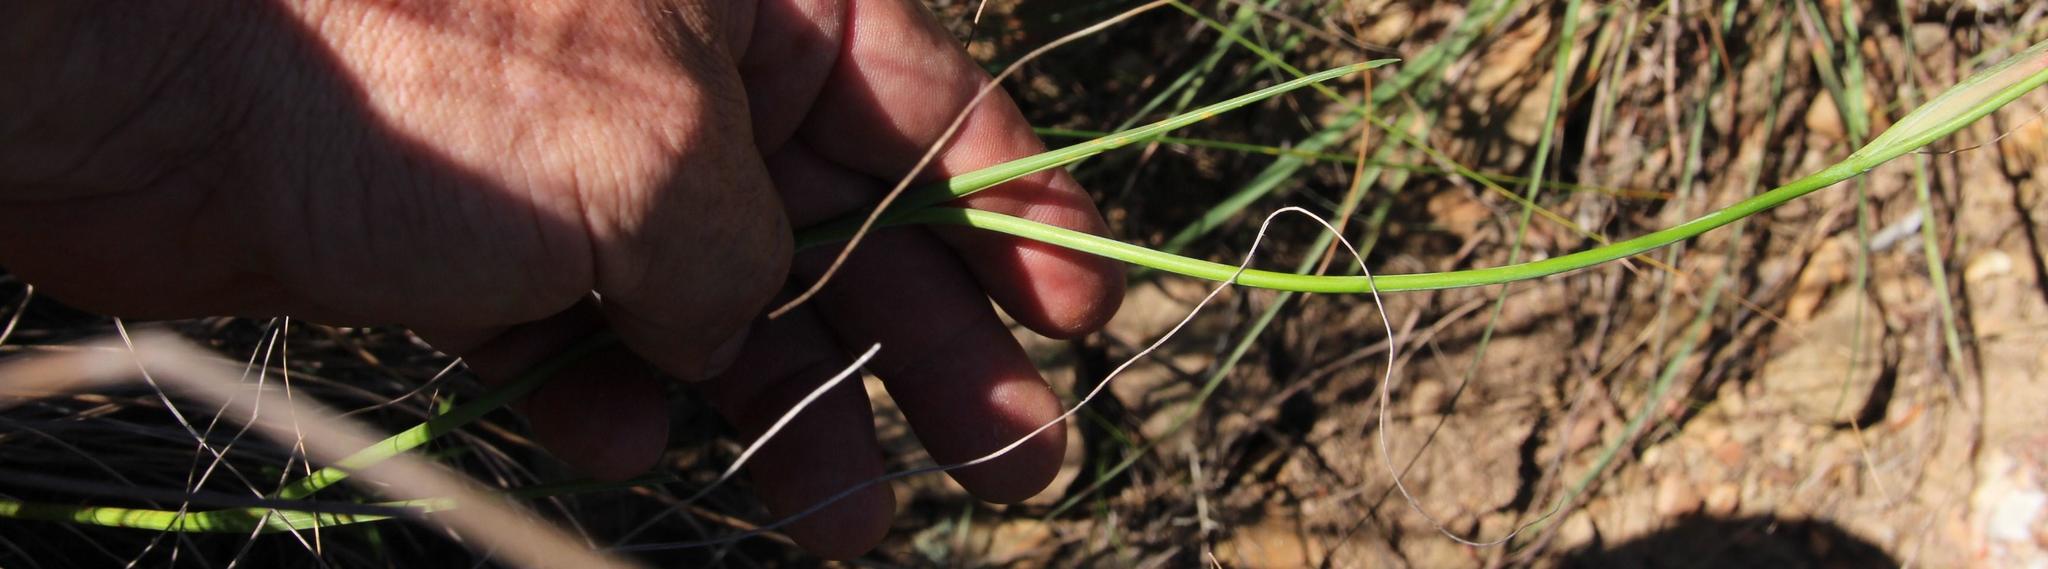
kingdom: Plantae
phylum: Tracheophyta
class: Liliopsida
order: Asparagales
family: Iridaceae
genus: Gladiolus
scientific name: Gladiolus vandermerwei
